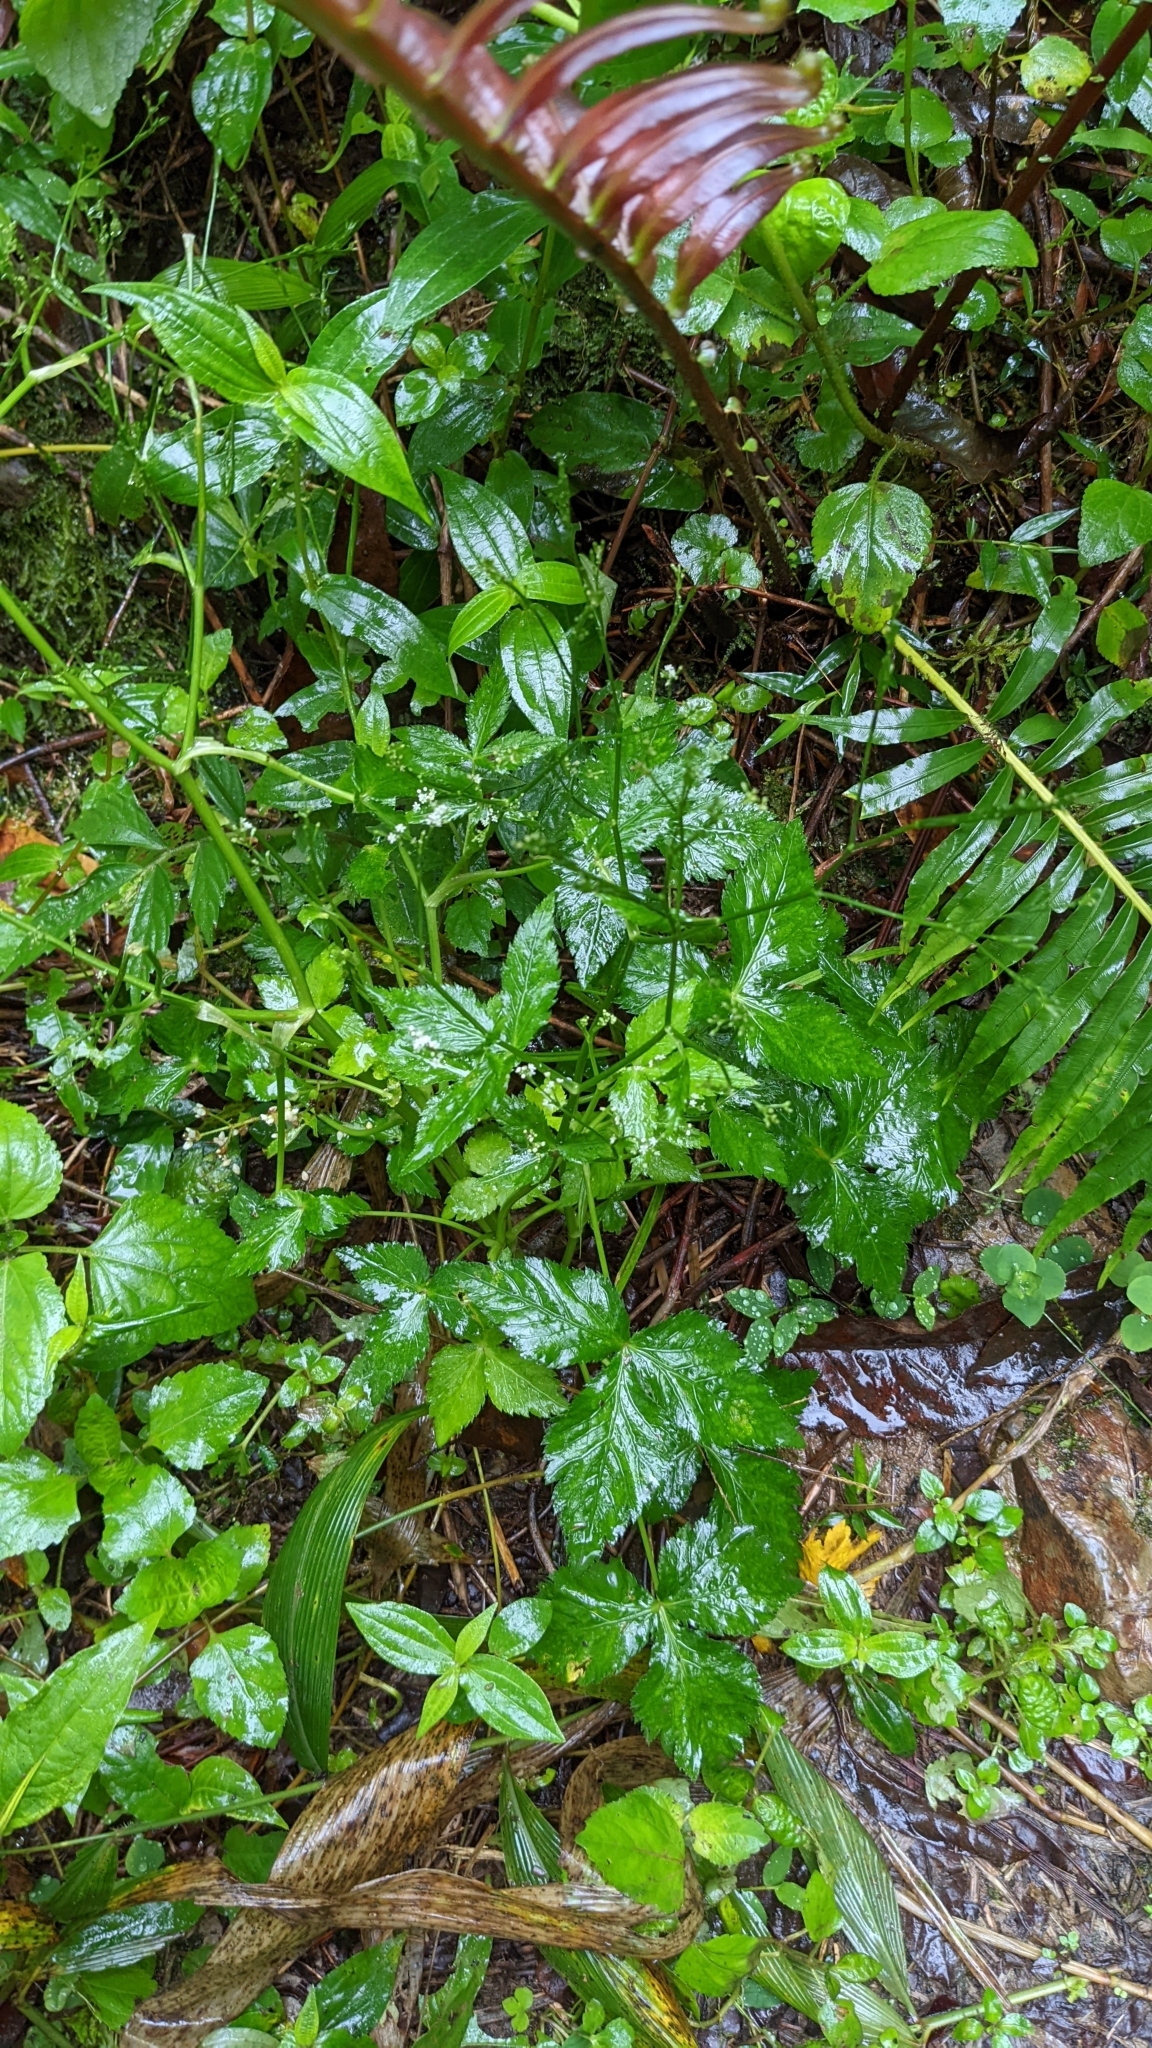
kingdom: Plantae
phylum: Tracheophyta
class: Magnoliopsida
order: Apiales
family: Apiaceae
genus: Cryptotaenia
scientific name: Cryptotaenia japonica
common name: Japanese cryptotaenia
